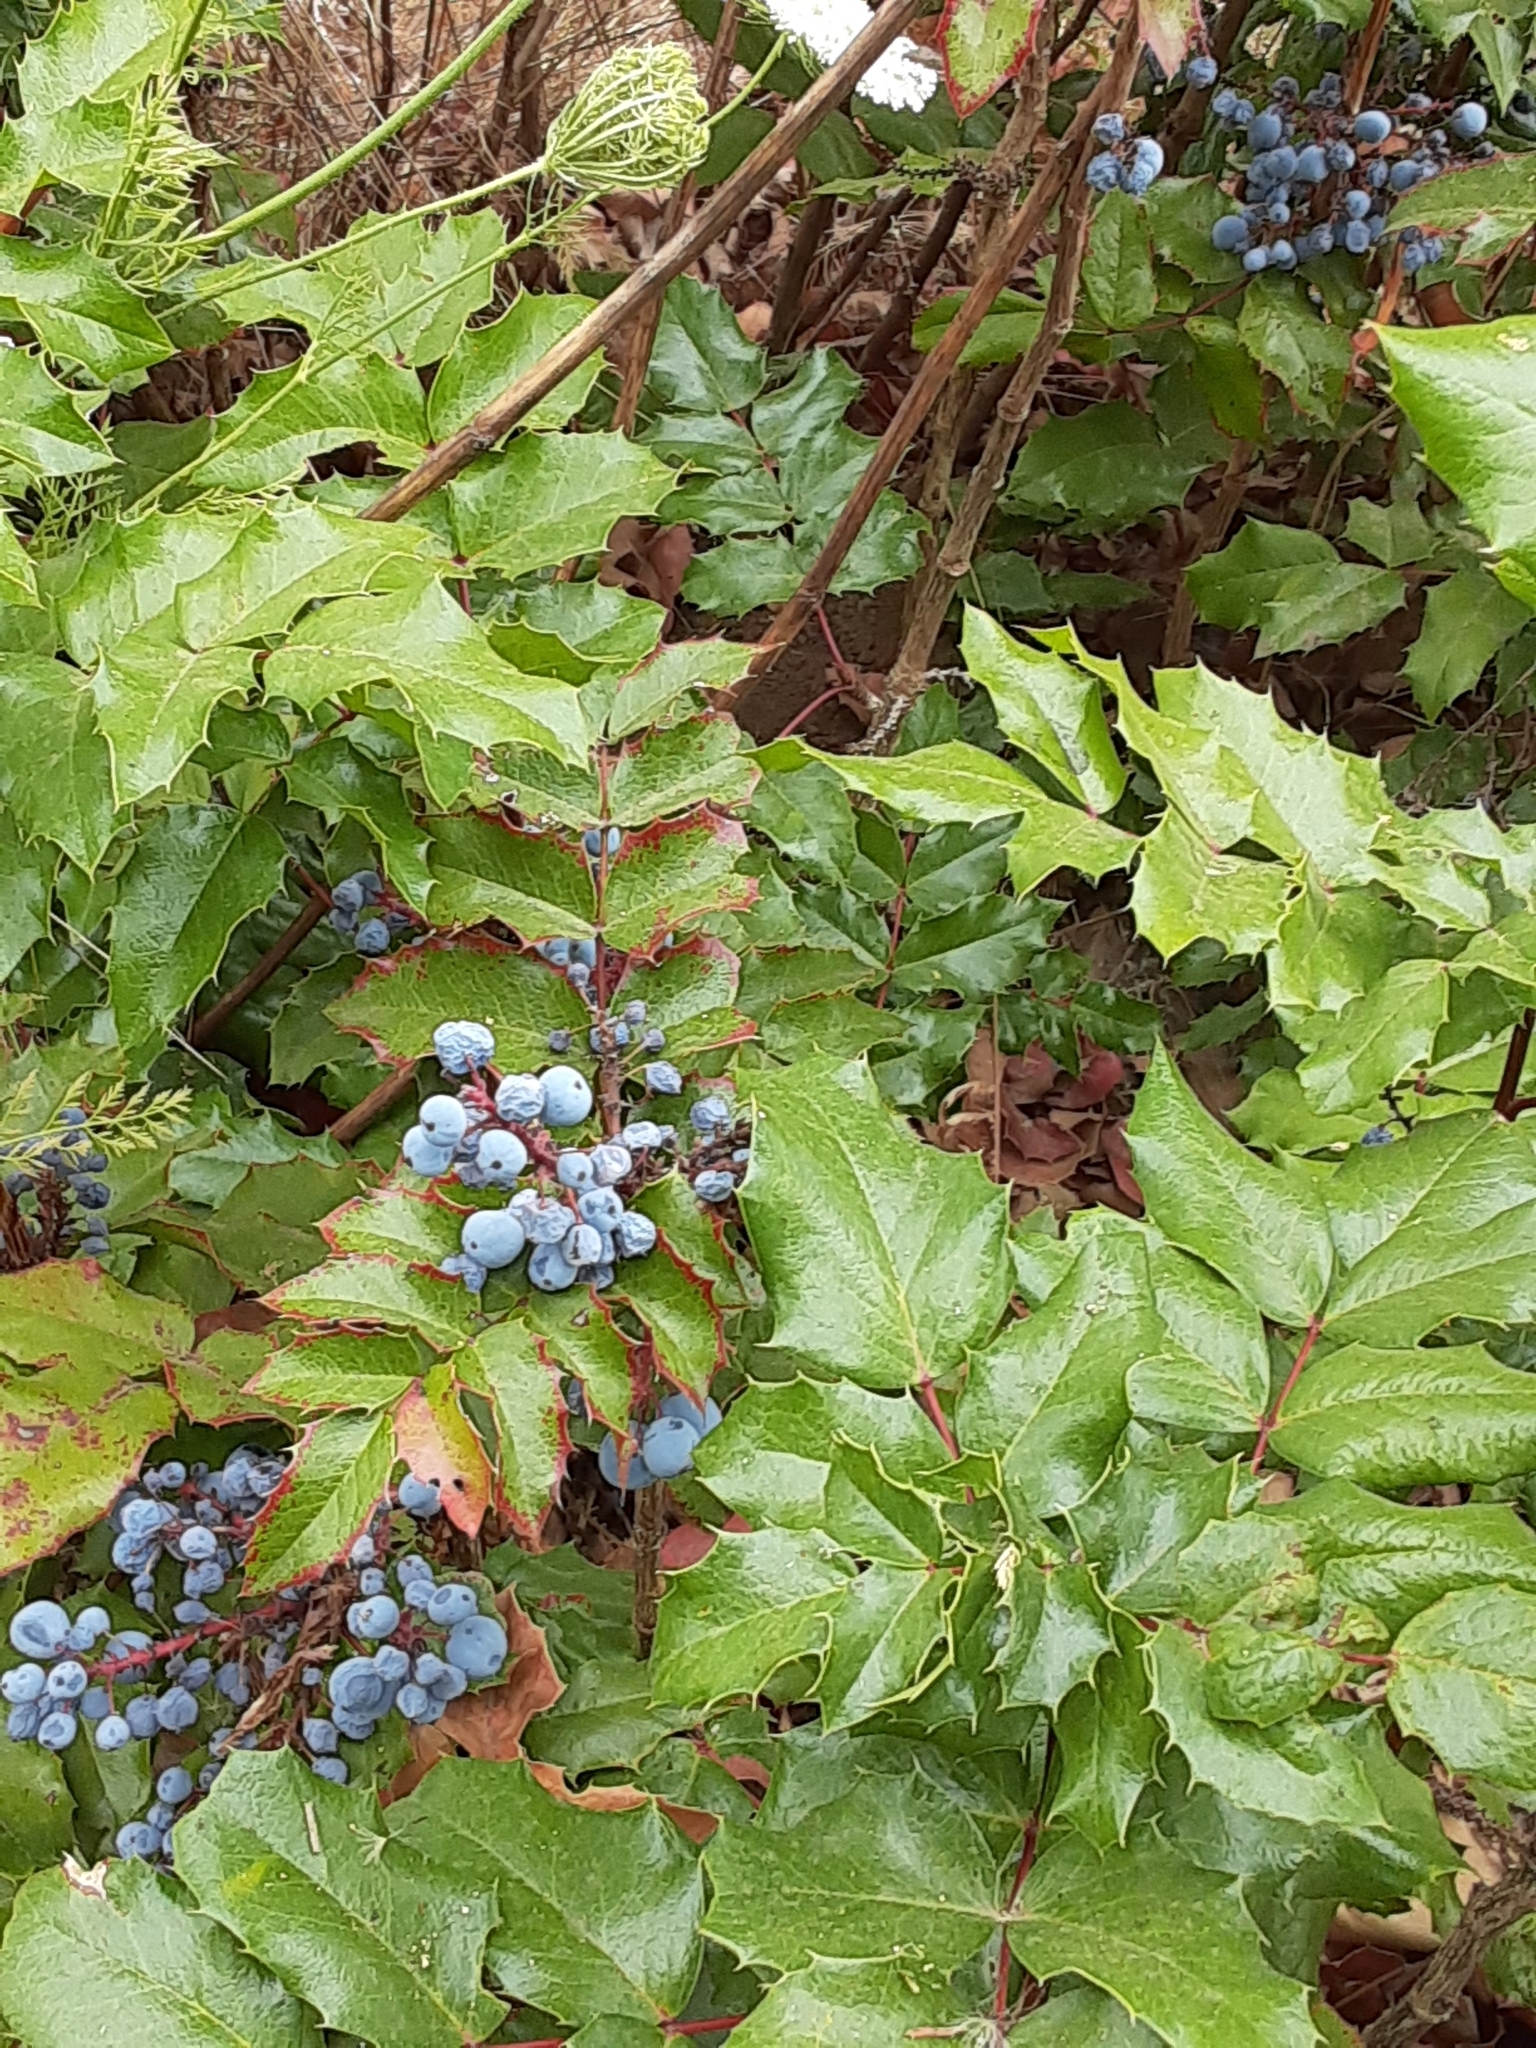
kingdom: Plantae
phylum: Tracheophyta
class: Magnoliopsida
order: Ranunculales
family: Berberidaceae
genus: Mahonia
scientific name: Mahonia aquifolium
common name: Oregon-grape
